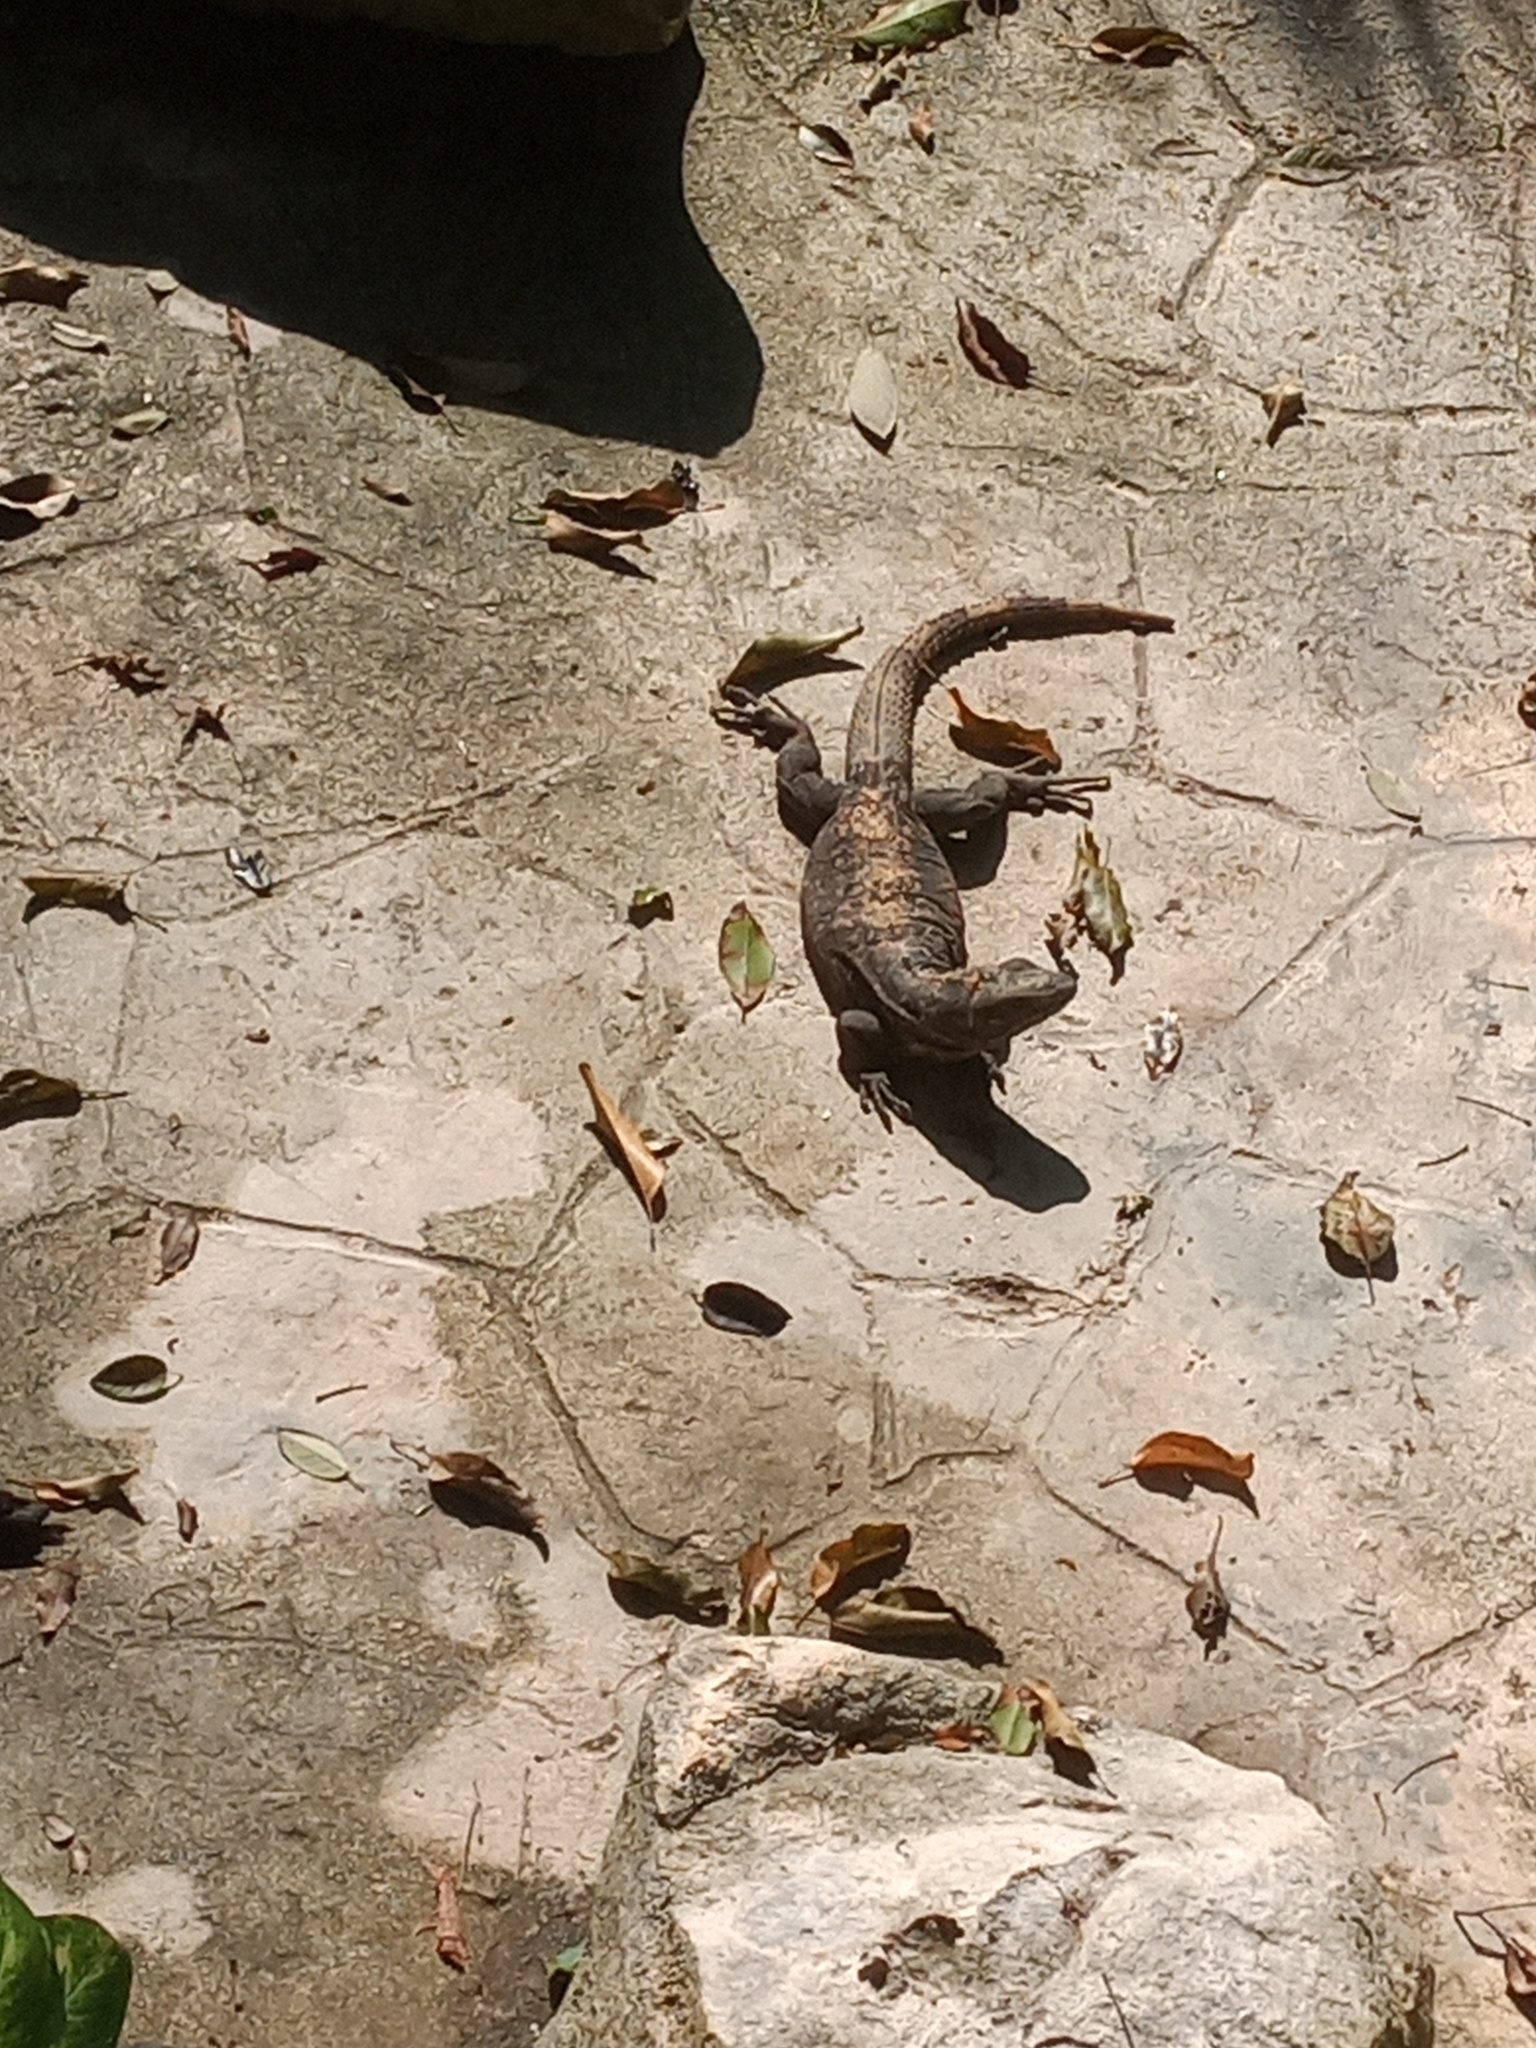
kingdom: Animalia
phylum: Chordata
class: Squamata
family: Iguanidae
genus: Ctenosaura
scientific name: Ctenosaura similis
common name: Black spiny-tailed iguana
